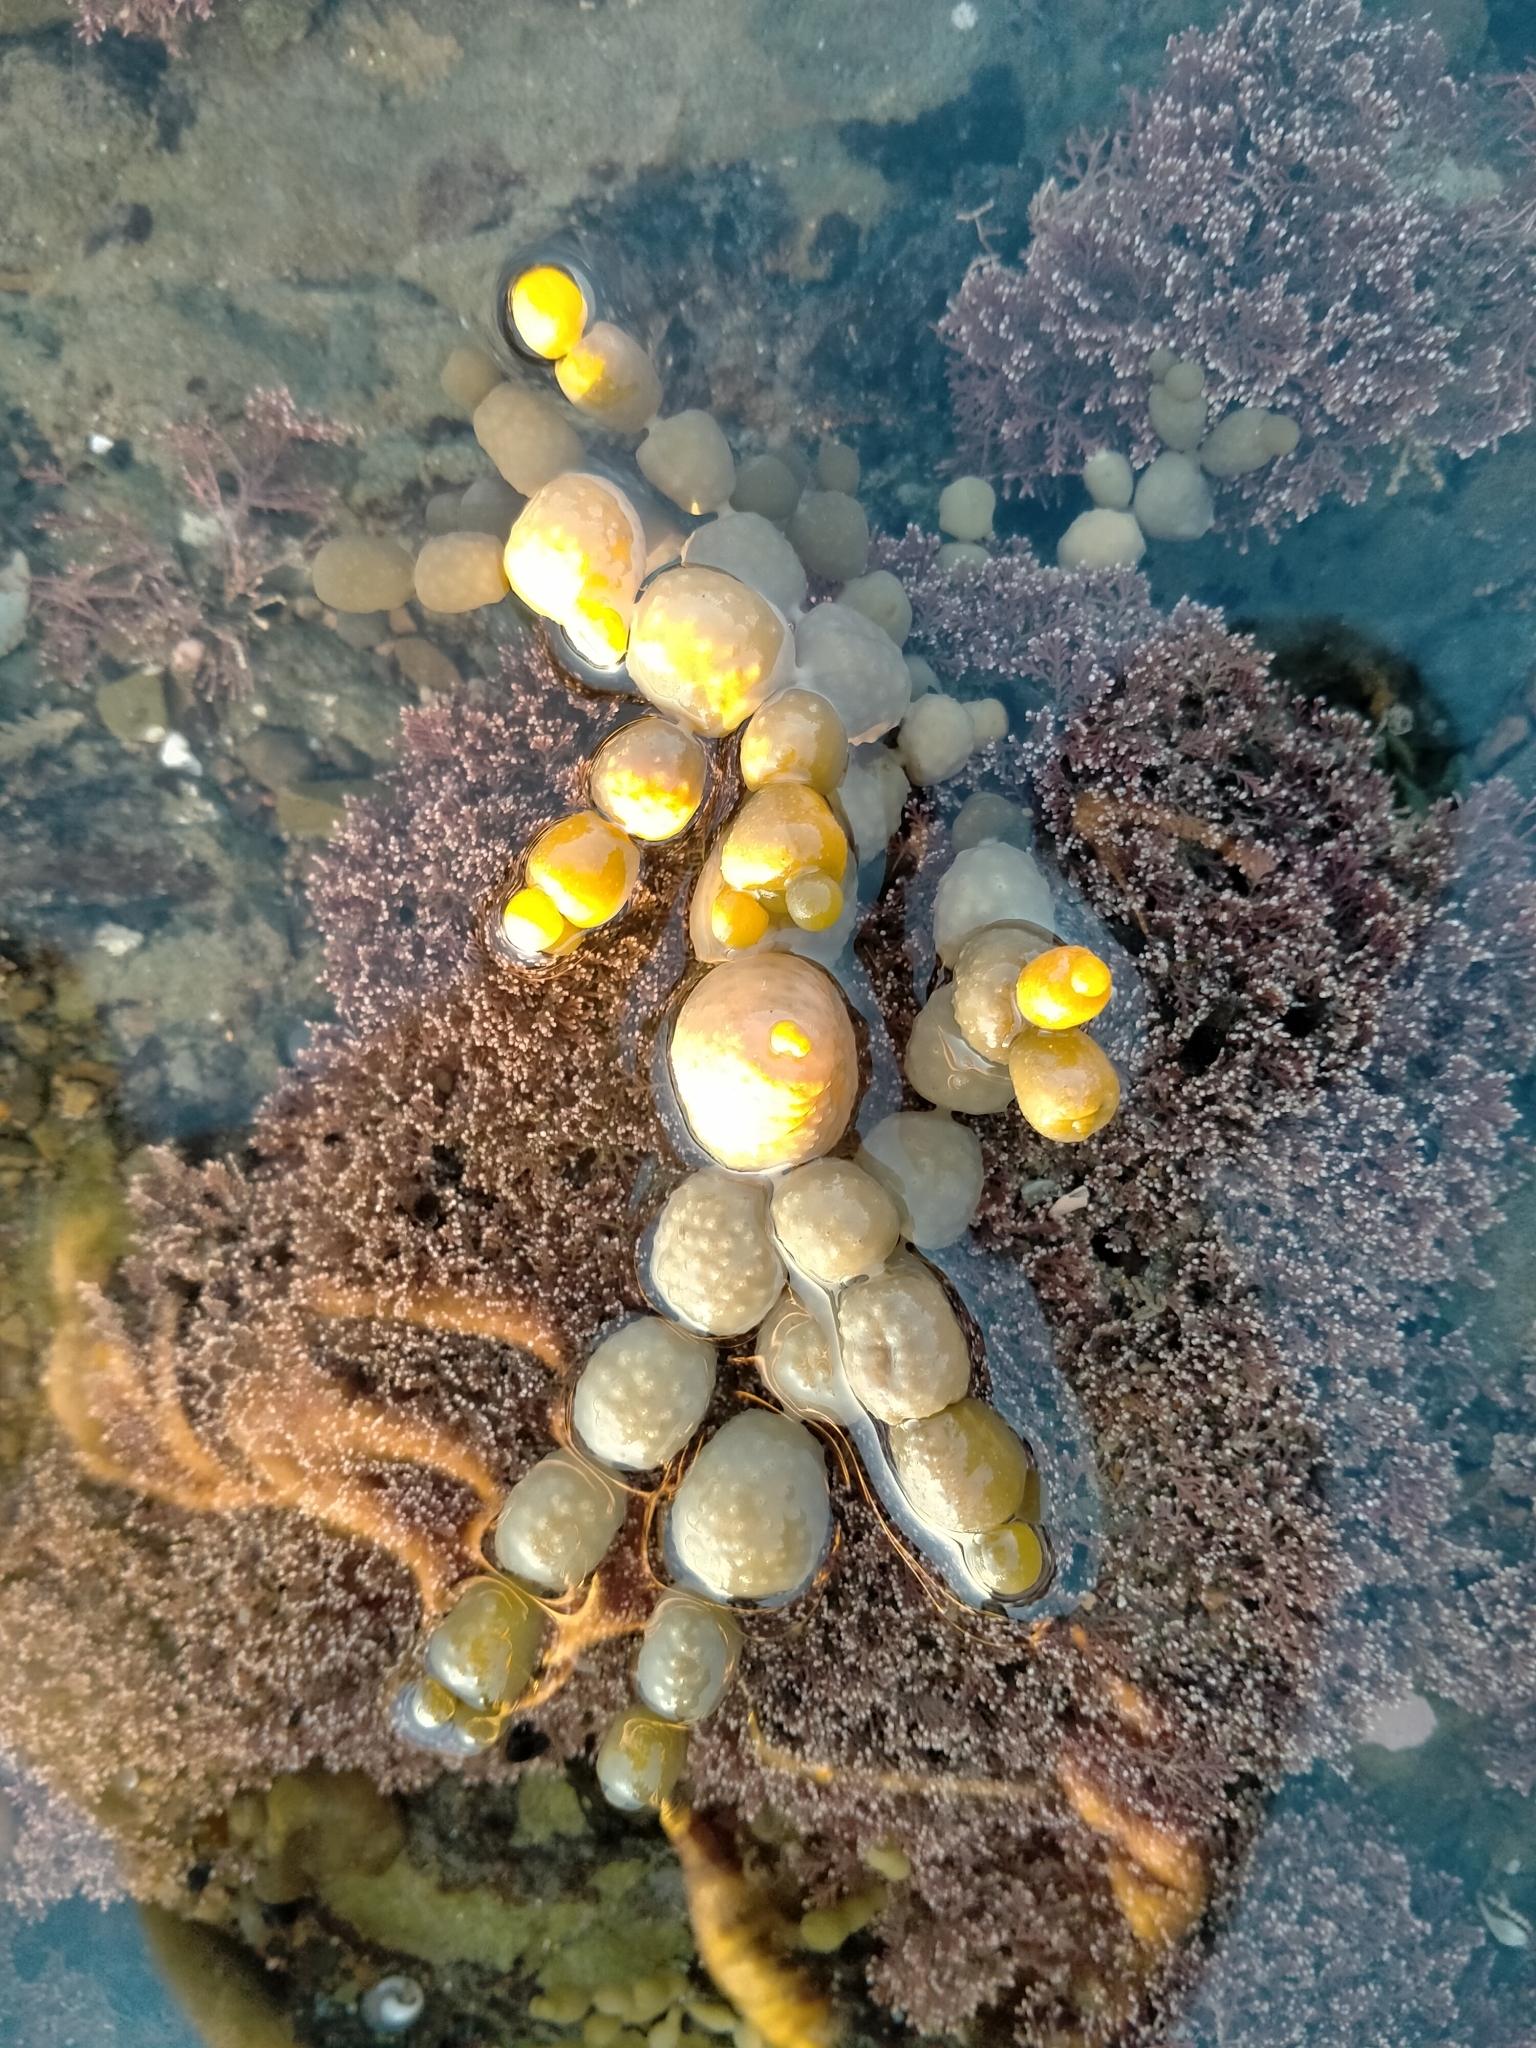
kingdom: Chromista
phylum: Ochrophyta
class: Phaeophyceae
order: Fucales
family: Hormosiraceae
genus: Hormosira
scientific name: Hormosira banksii
